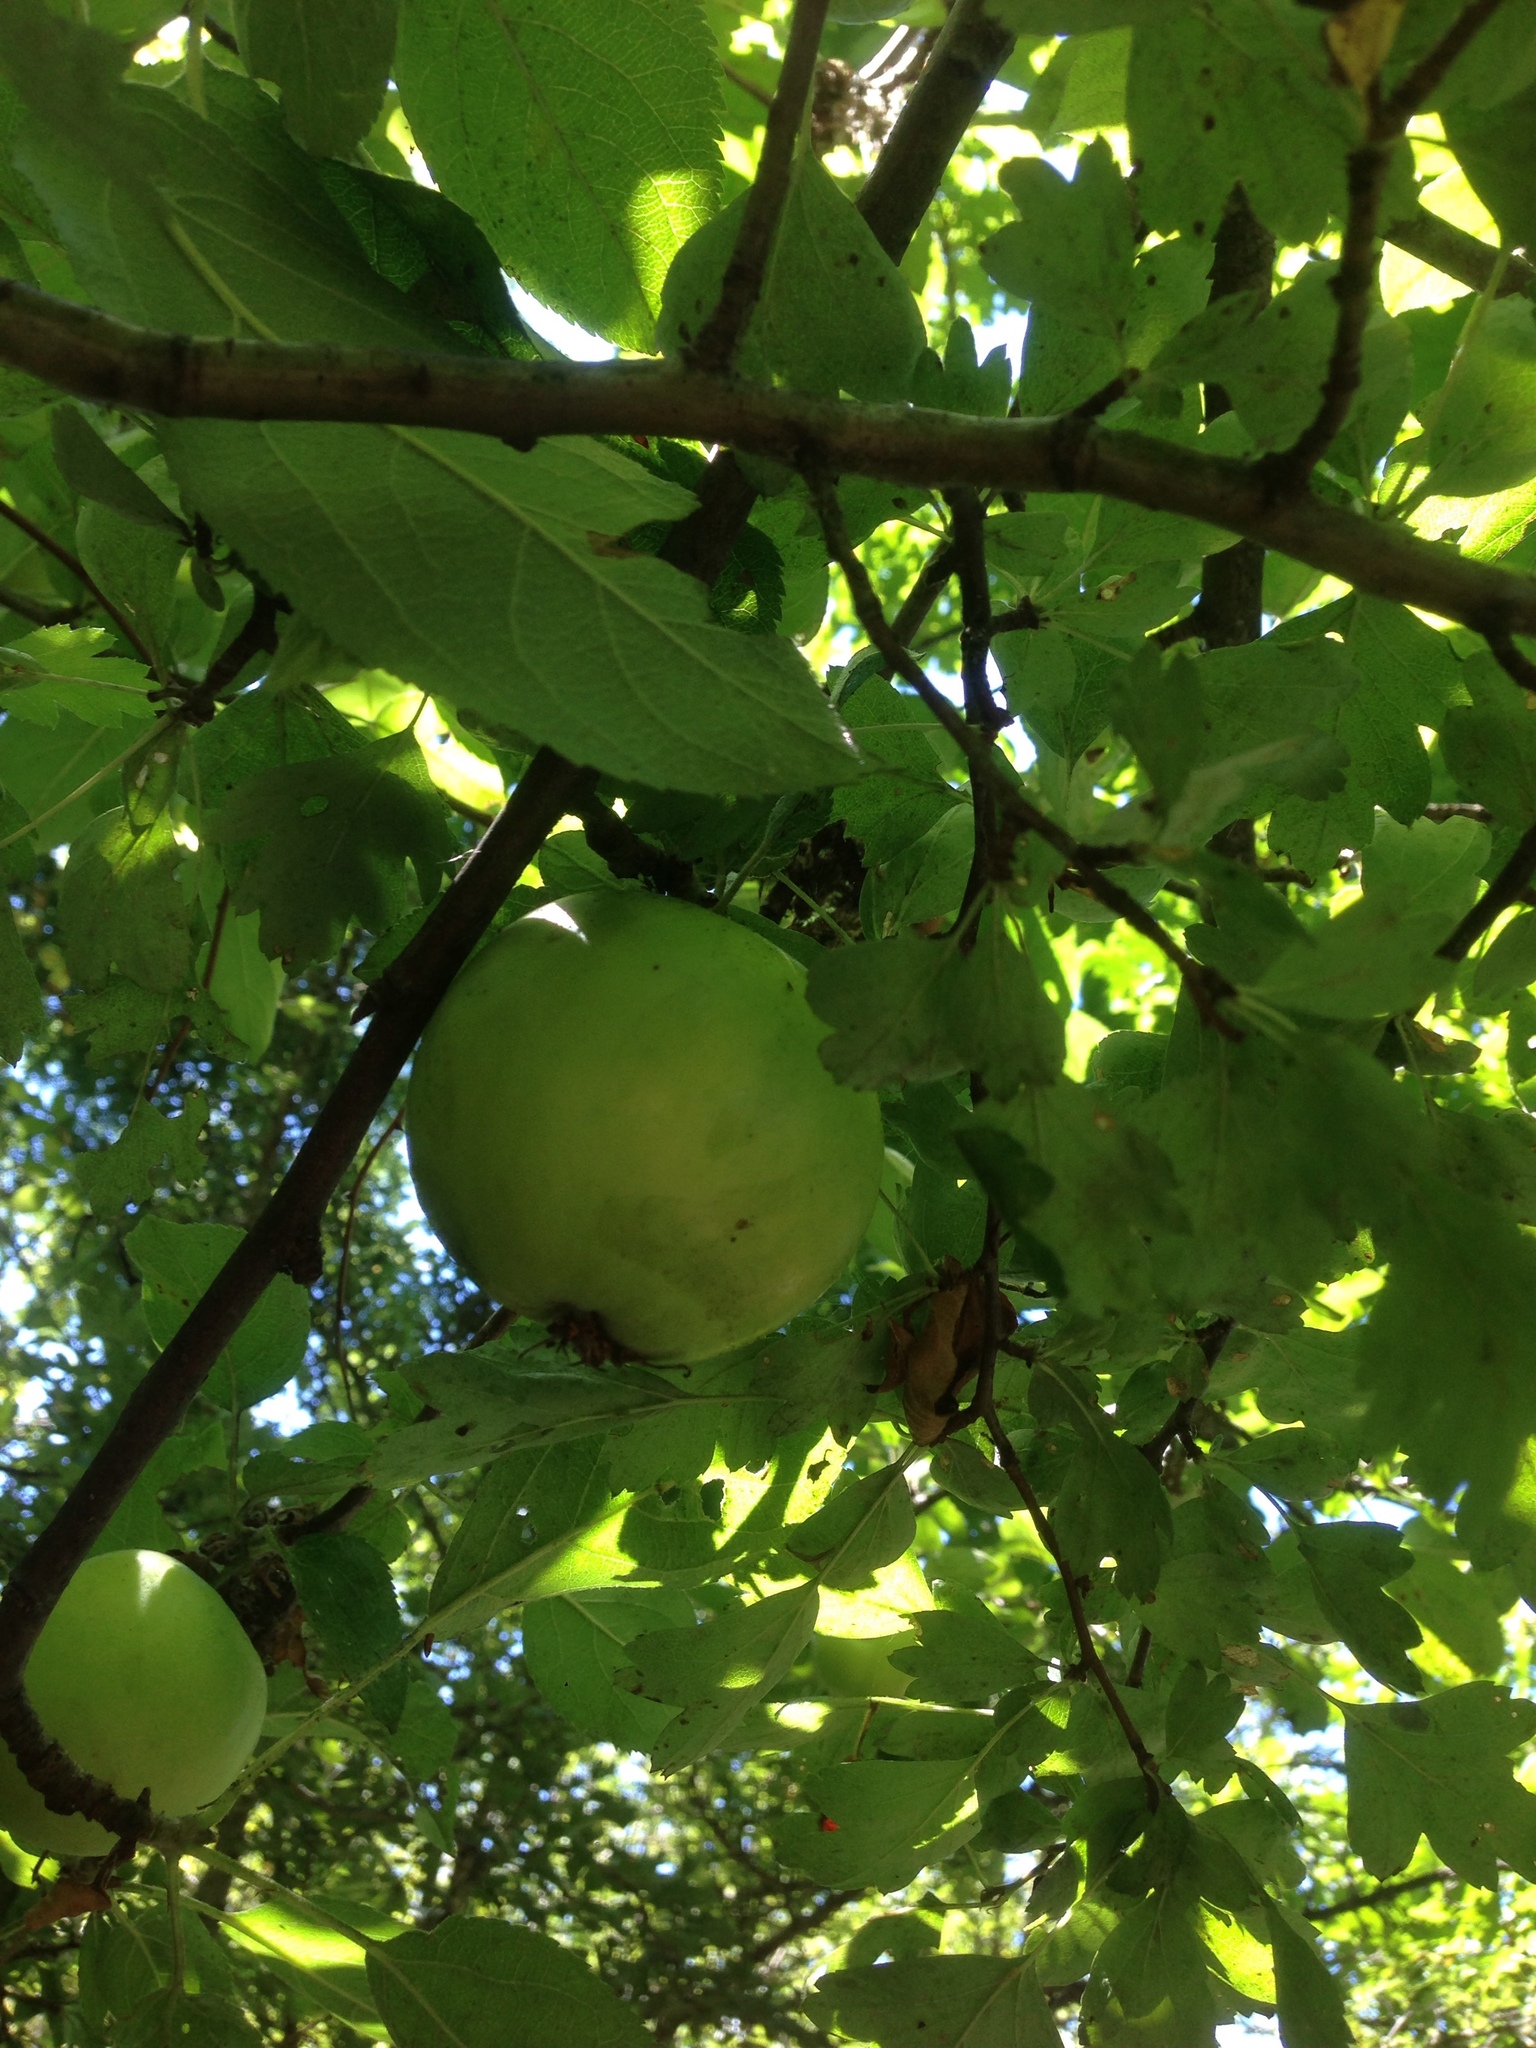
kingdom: Plantae
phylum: Tracheophyta
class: Magnoliopsida
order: Rosales
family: Rosaceae
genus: Malus
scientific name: Malus domestica
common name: Apple
